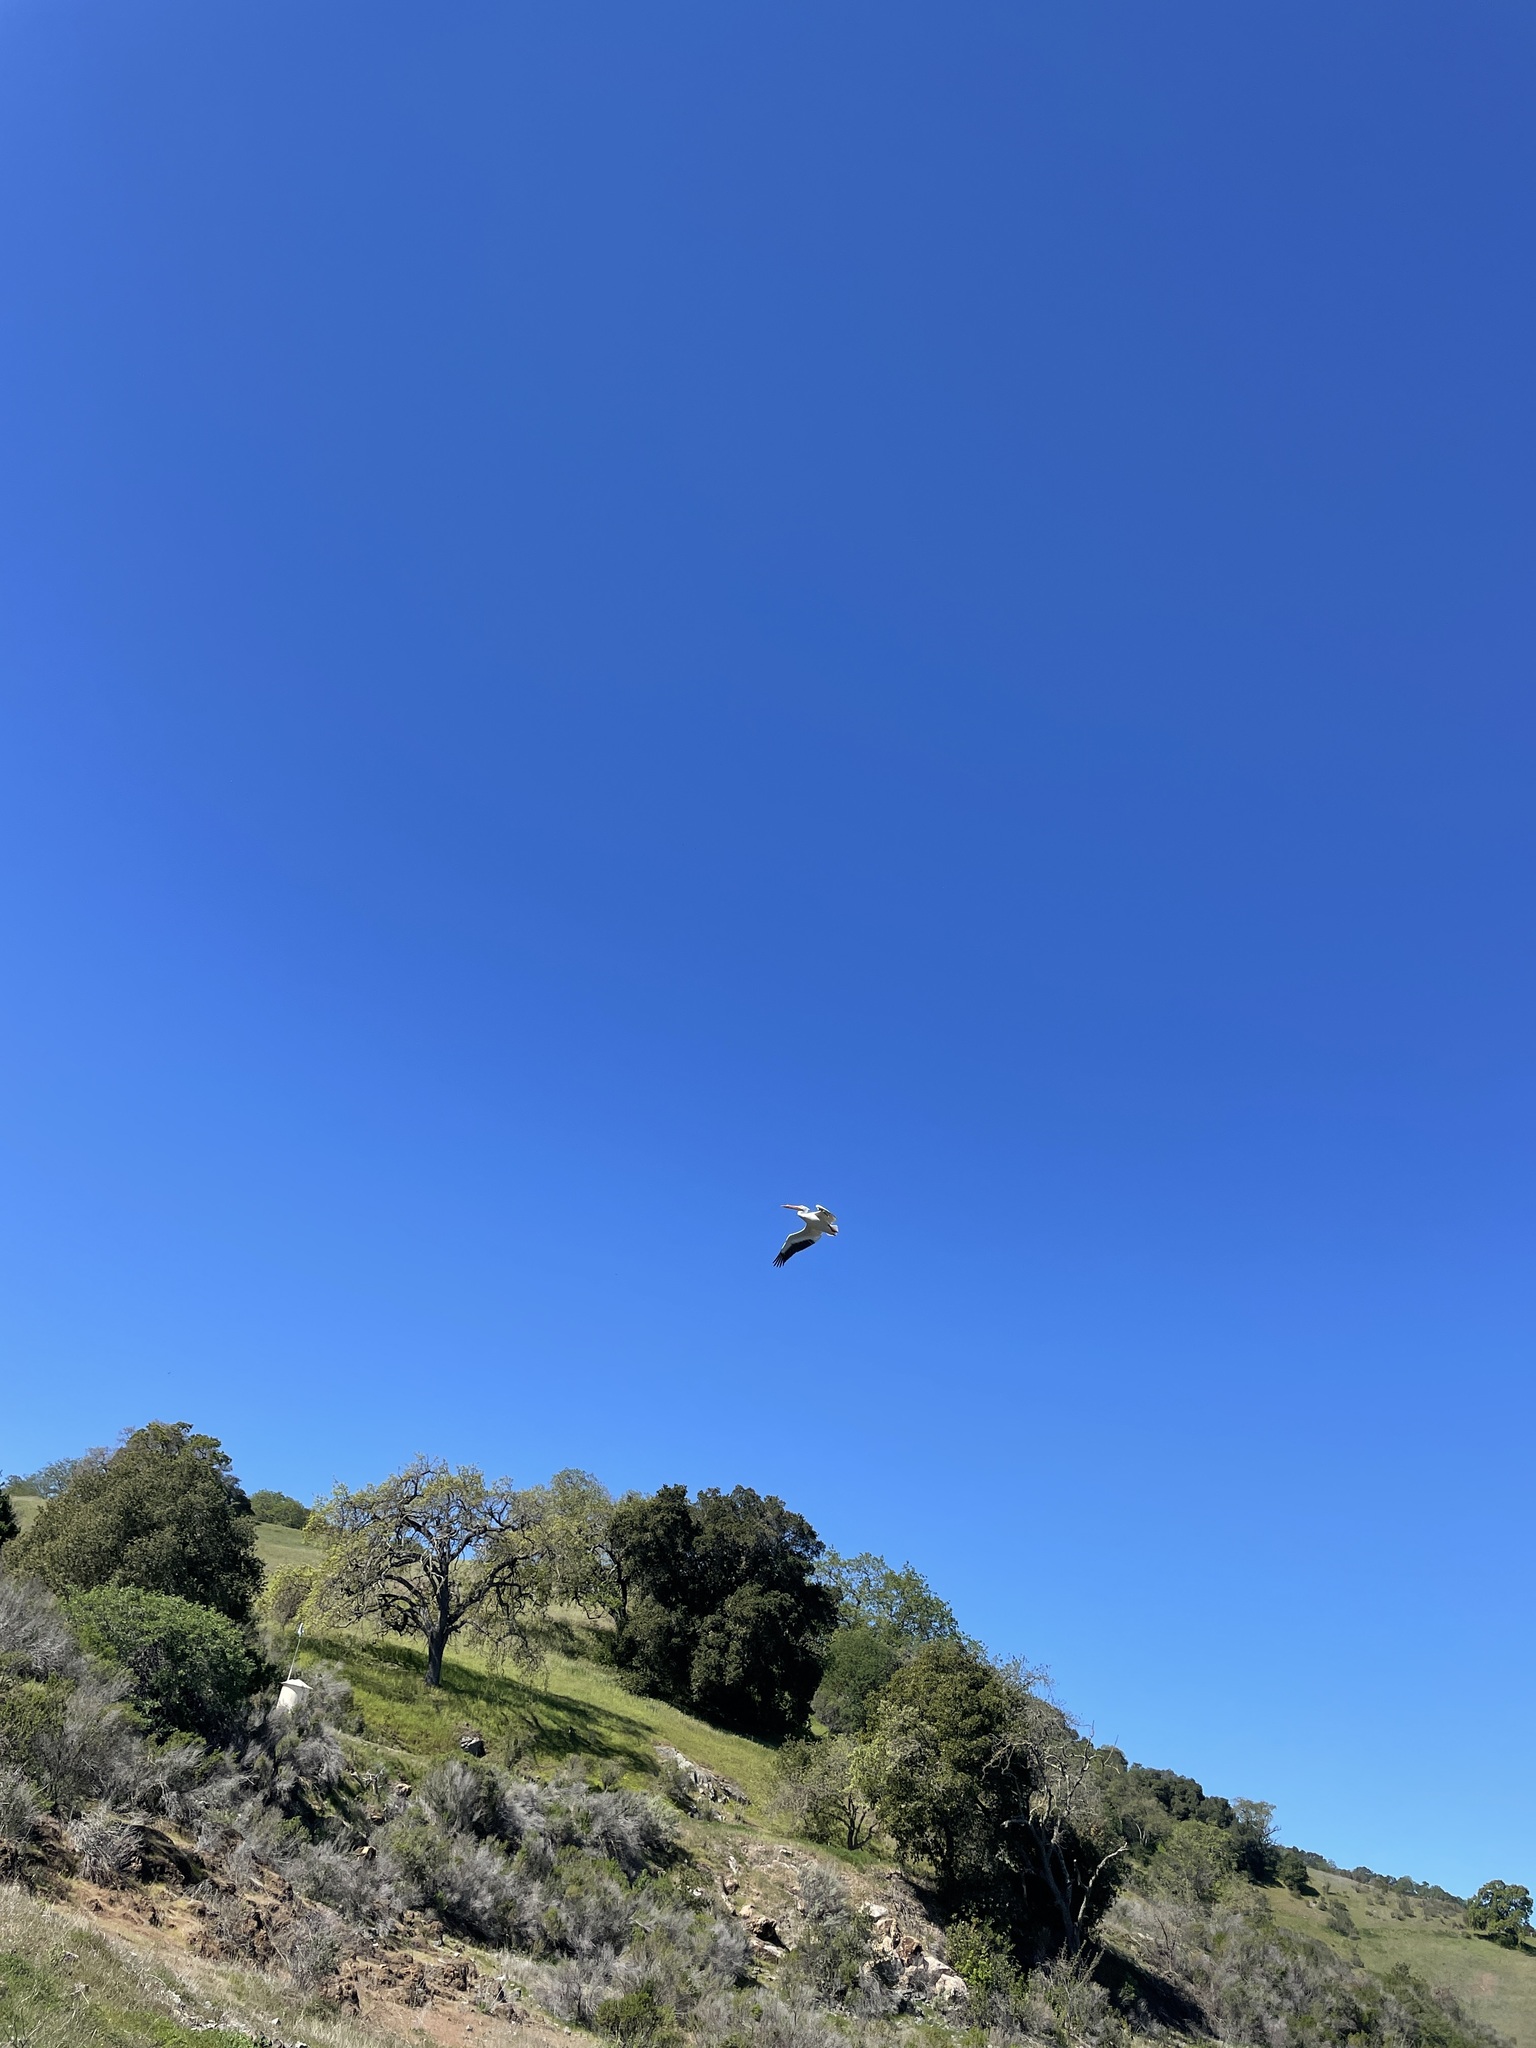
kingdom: Animalia
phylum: Chordata
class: Aves
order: Pelecaniformes
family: Pelecanidae
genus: Pelecanus
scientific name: Pelecanus erythrorhynchos
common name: American white pelican
